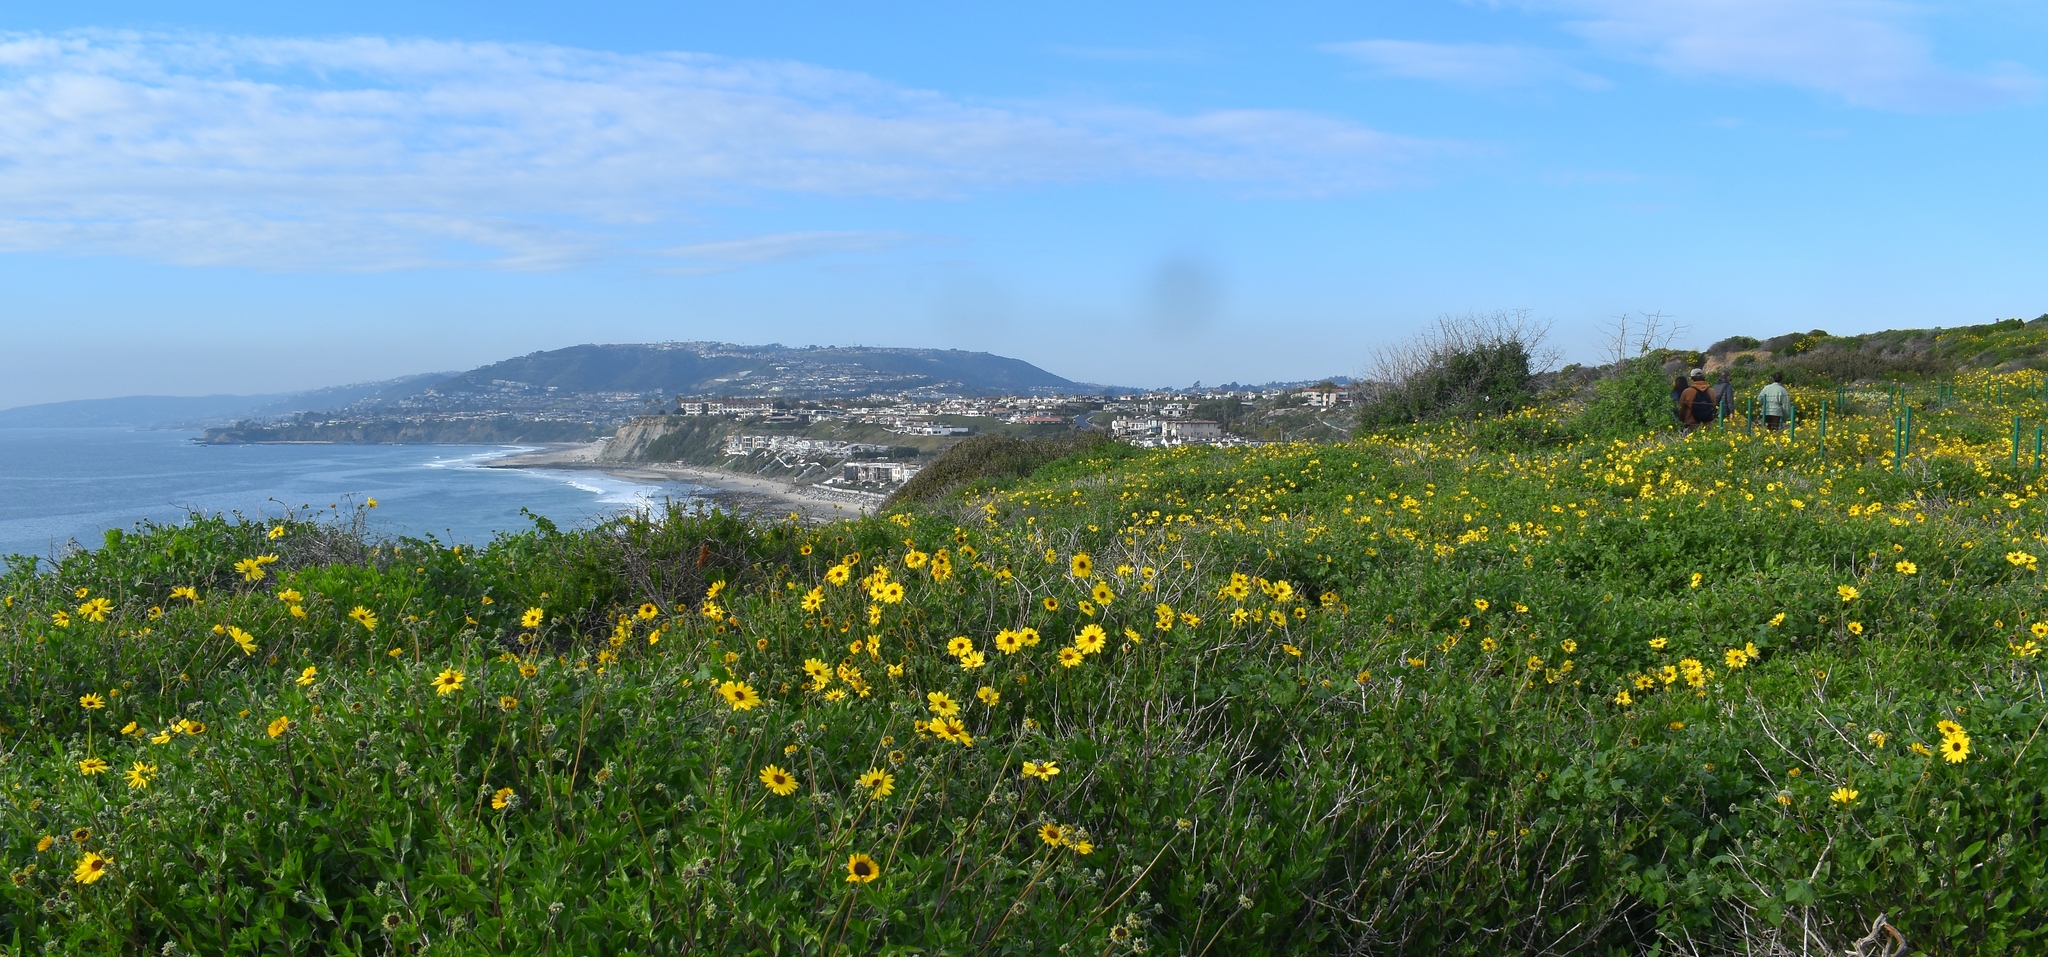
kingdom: Plantae
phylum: Tracheophyta
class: Magnoliopsida
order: Asterales
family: Asteraceae
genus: Encelia
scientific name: Encelia californica
